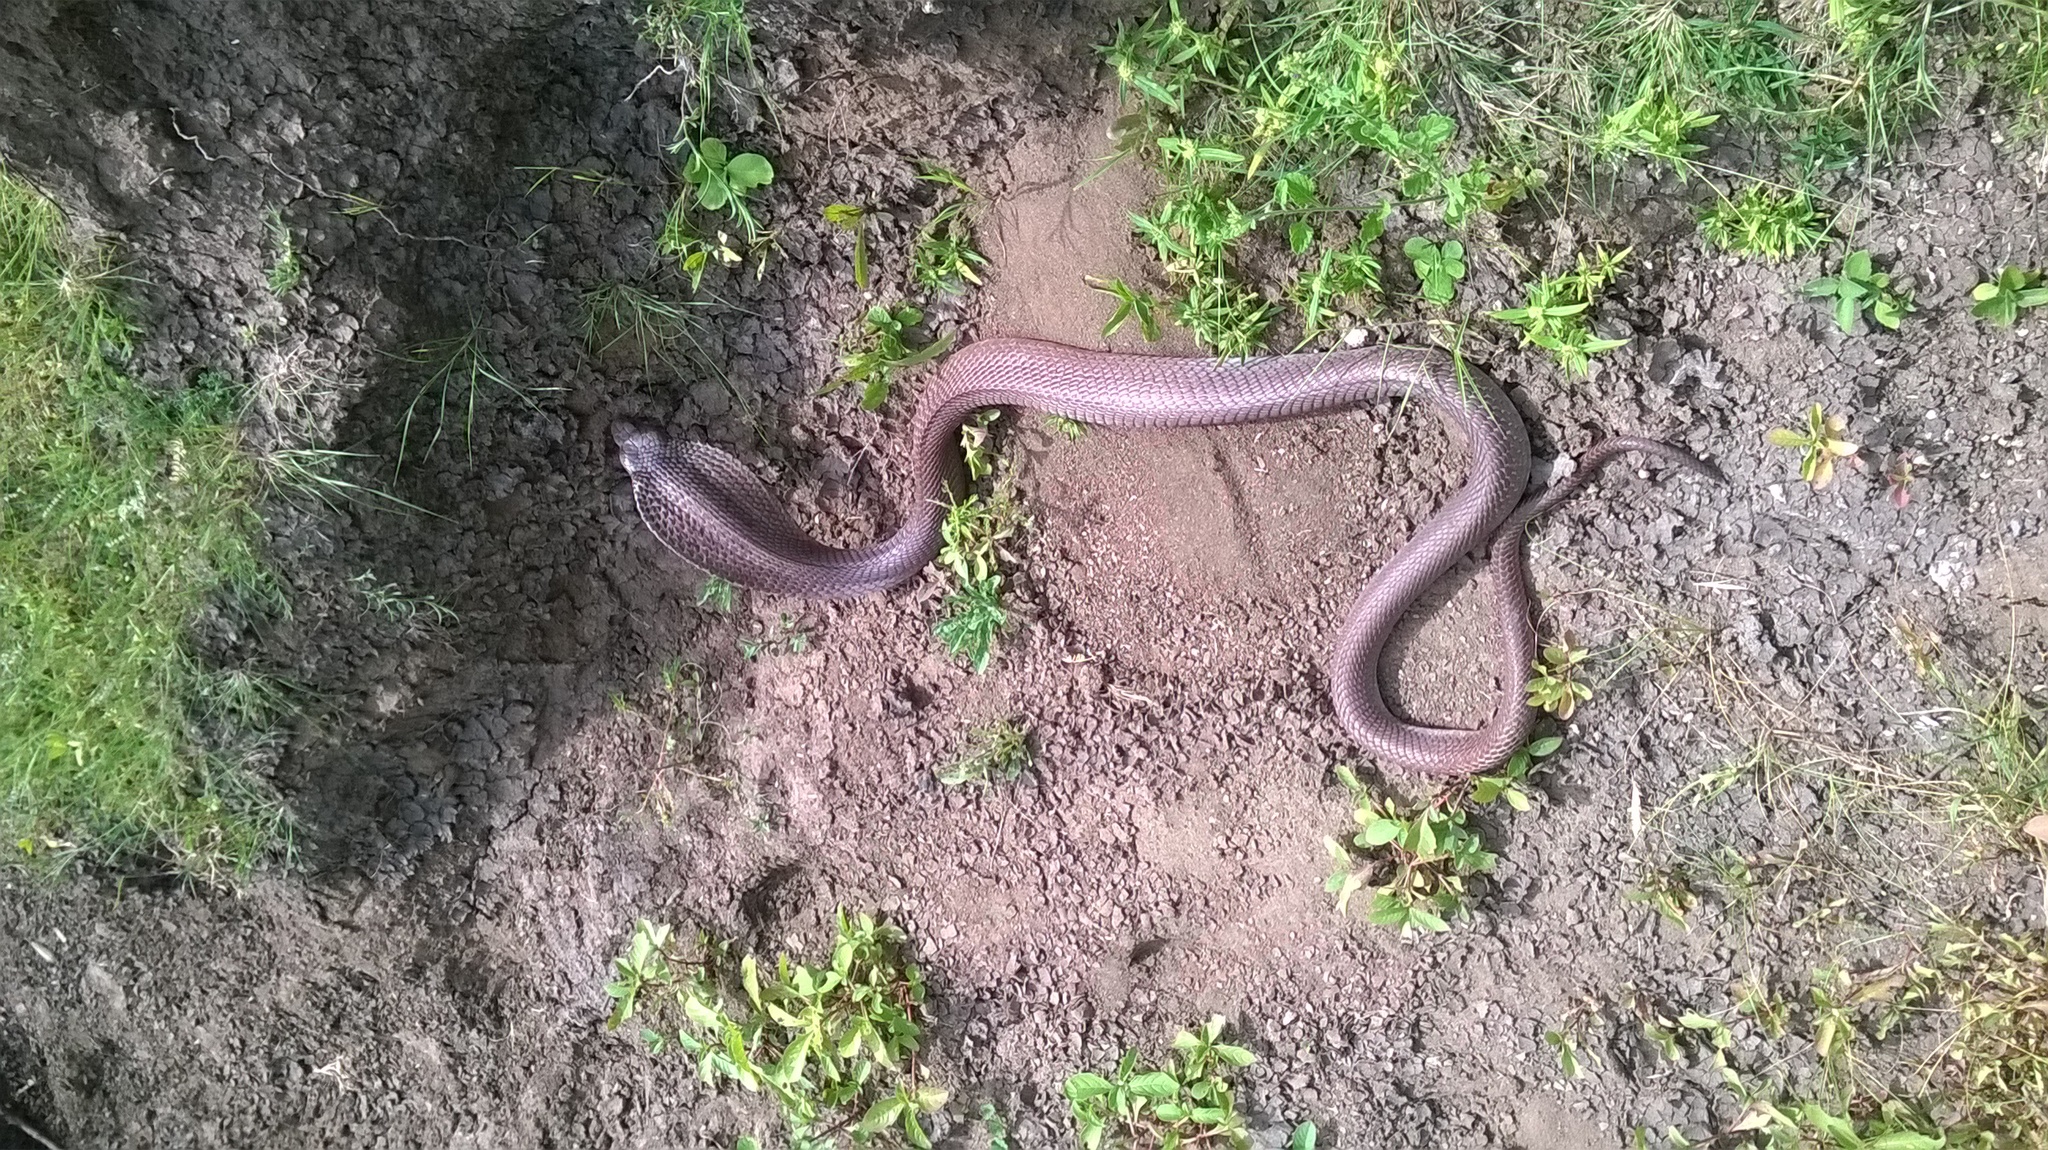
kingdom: Animalia
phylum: Chordata
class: Squamata
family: Elapidae
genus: Naja
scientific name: Naja naja
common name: Indian cobra
